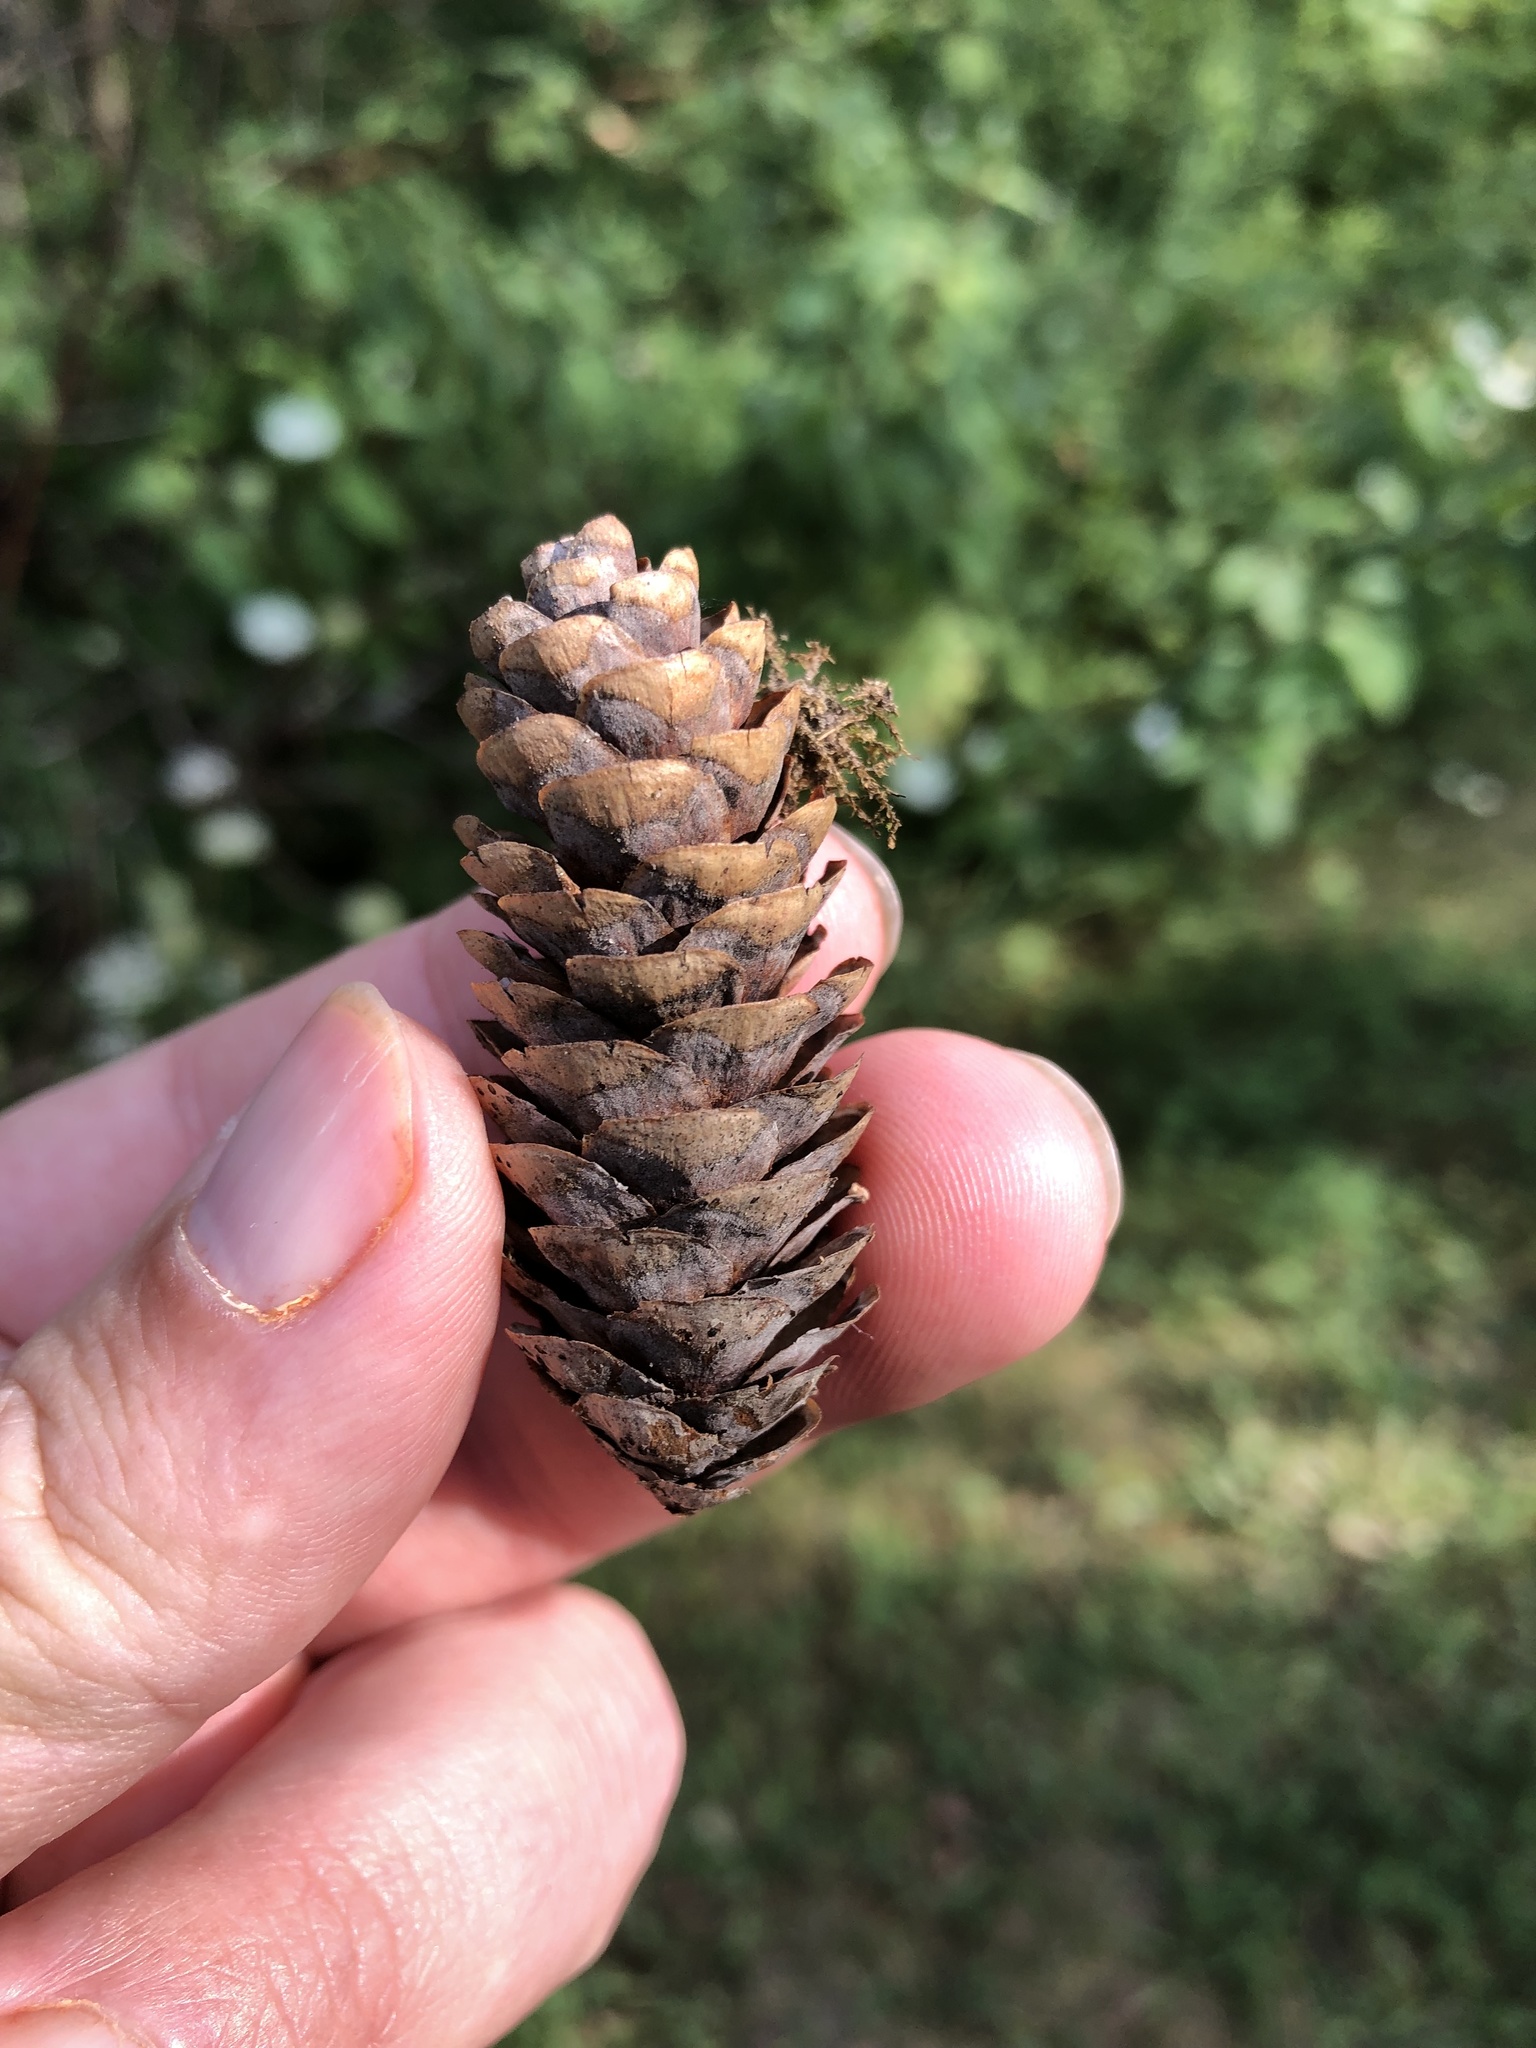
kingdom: Plantae
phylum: Tracheophyta
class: Pinopsida
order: Pinales
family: Pinaceae
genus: Picea
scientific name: Picea glauca
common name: White spruce
